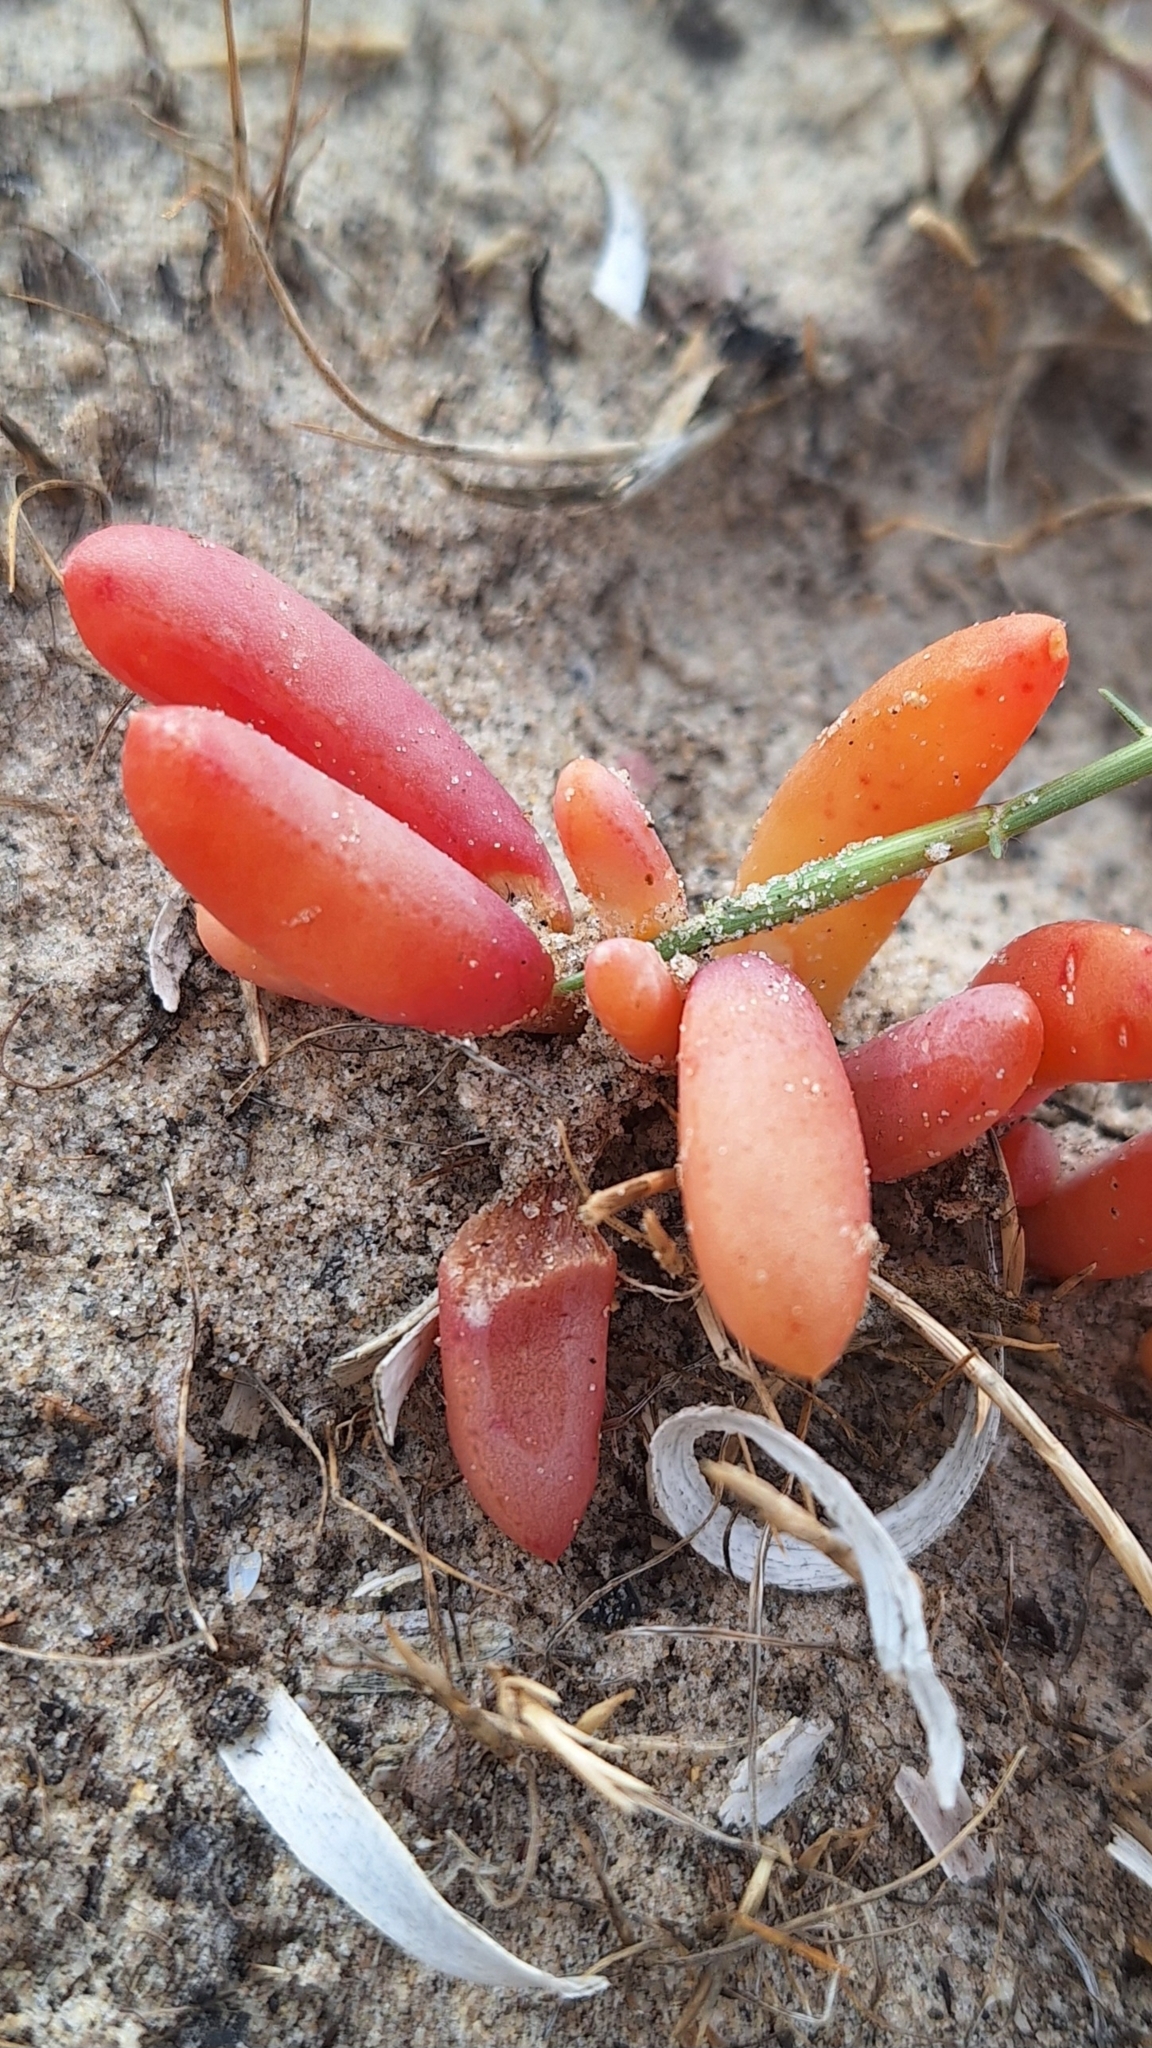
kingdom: Plantae
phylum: Tracheophyta
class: Magnoliopsida
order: Caryophyllales
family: Aizoaceae
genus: Disphyma
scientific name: Disphyma clavellatum
